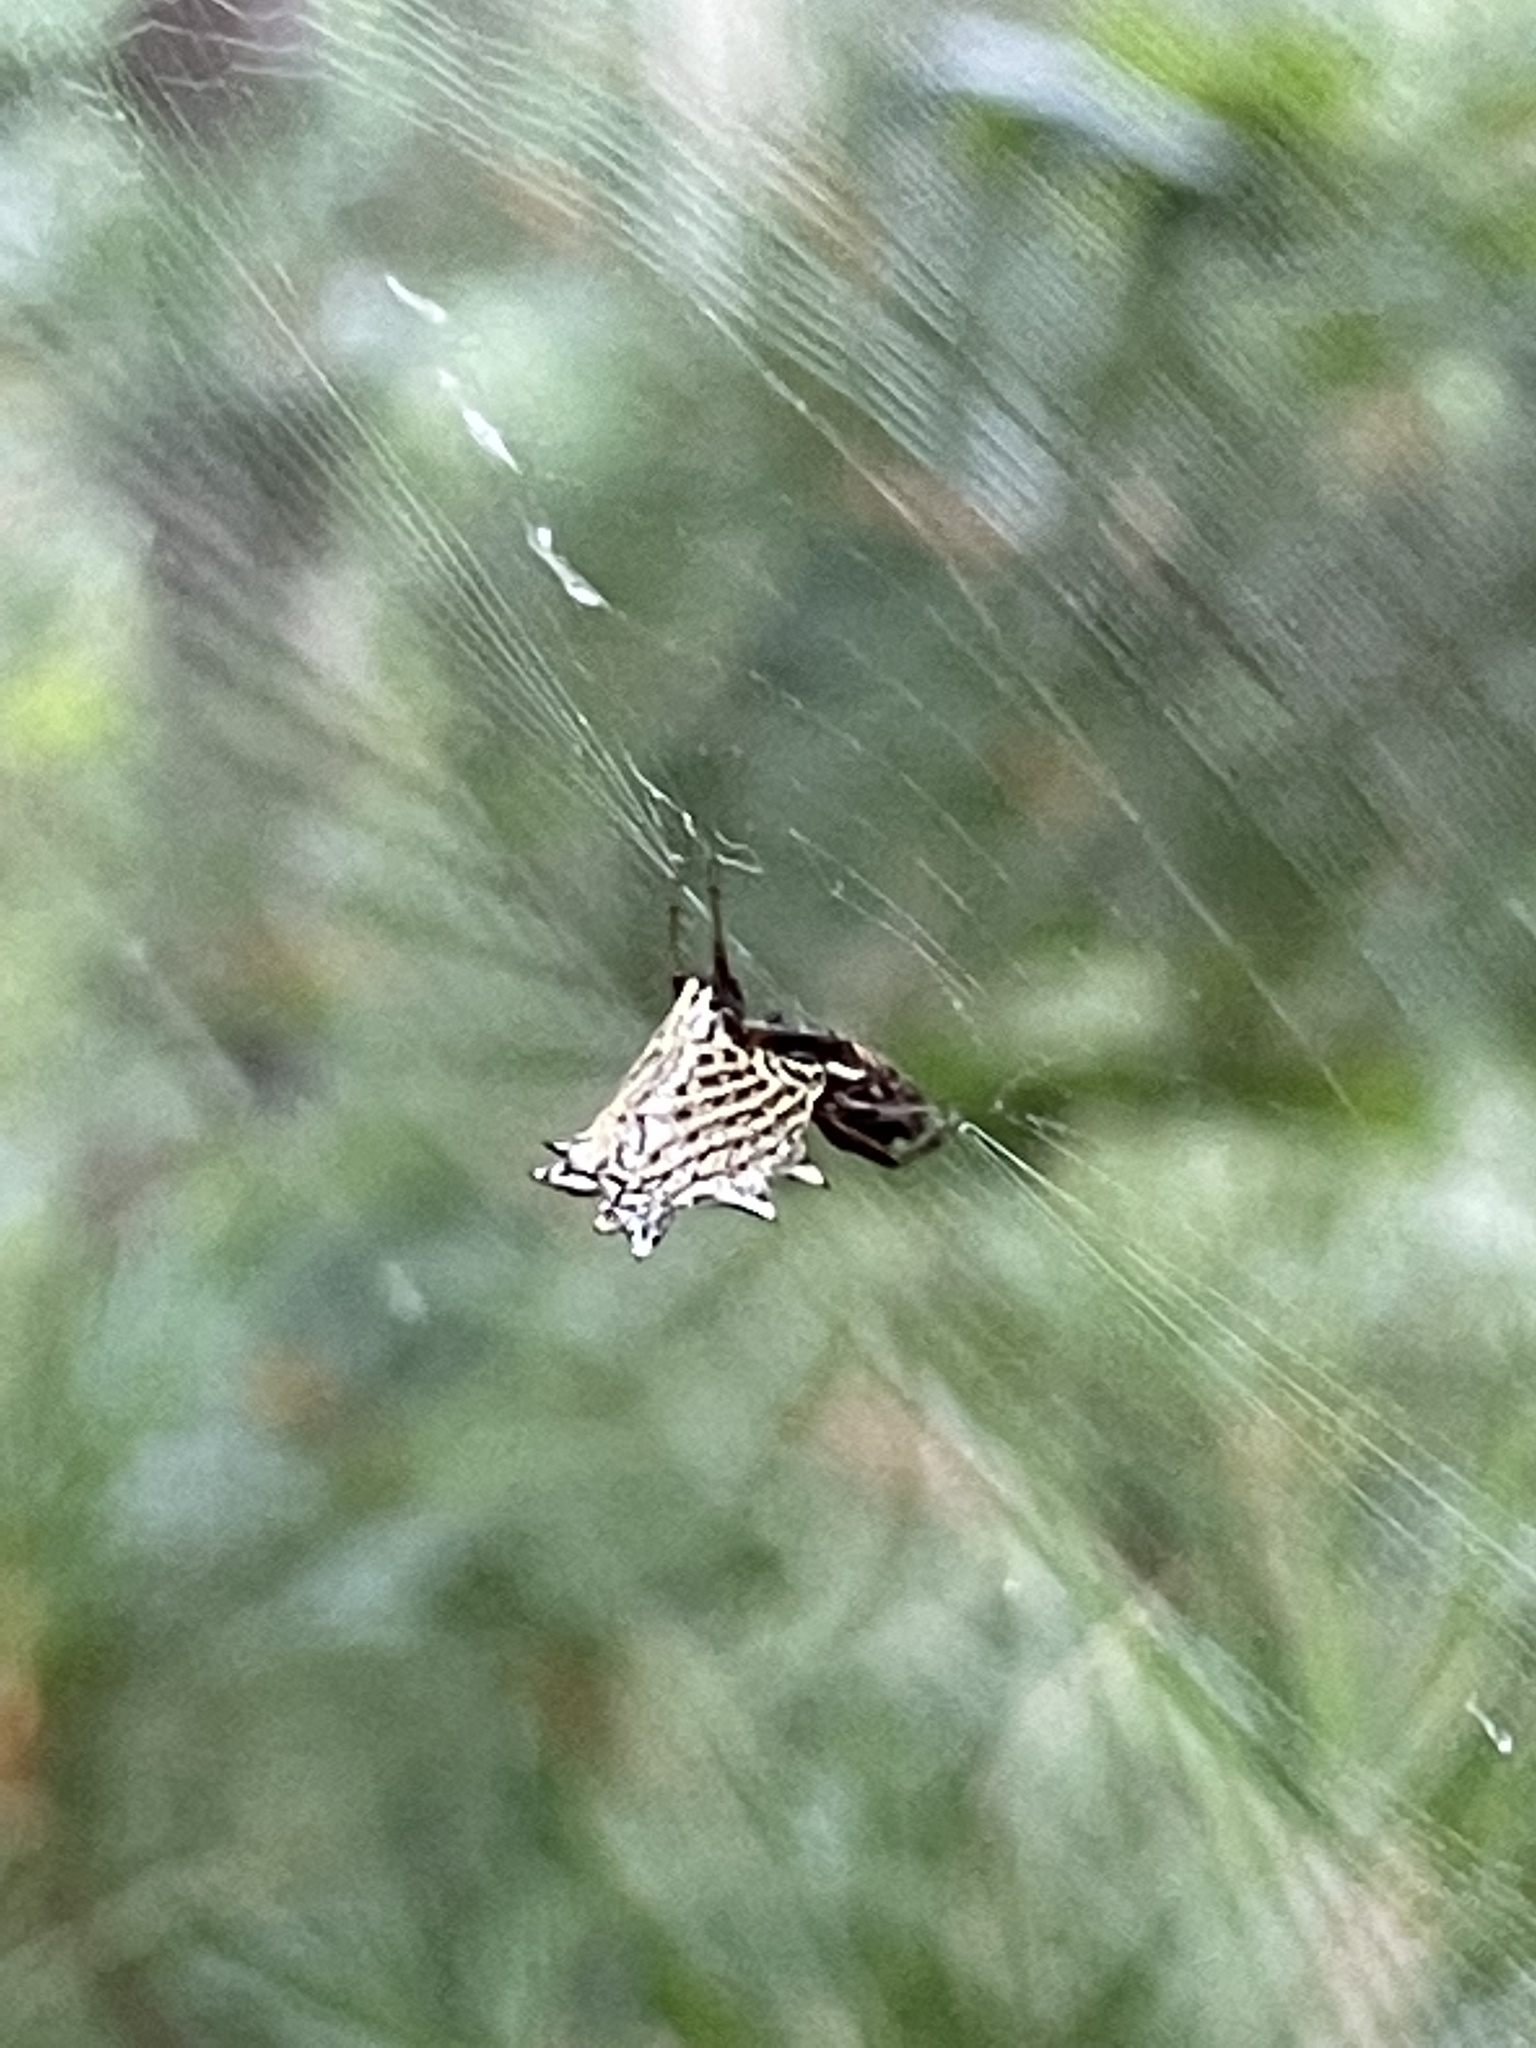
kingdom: Animalia
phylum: Arthropoda
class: Arachnida
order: Araneae
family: Araneidae
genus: Micrathena
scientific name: Micrathena gracilis
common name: Orb weavers
